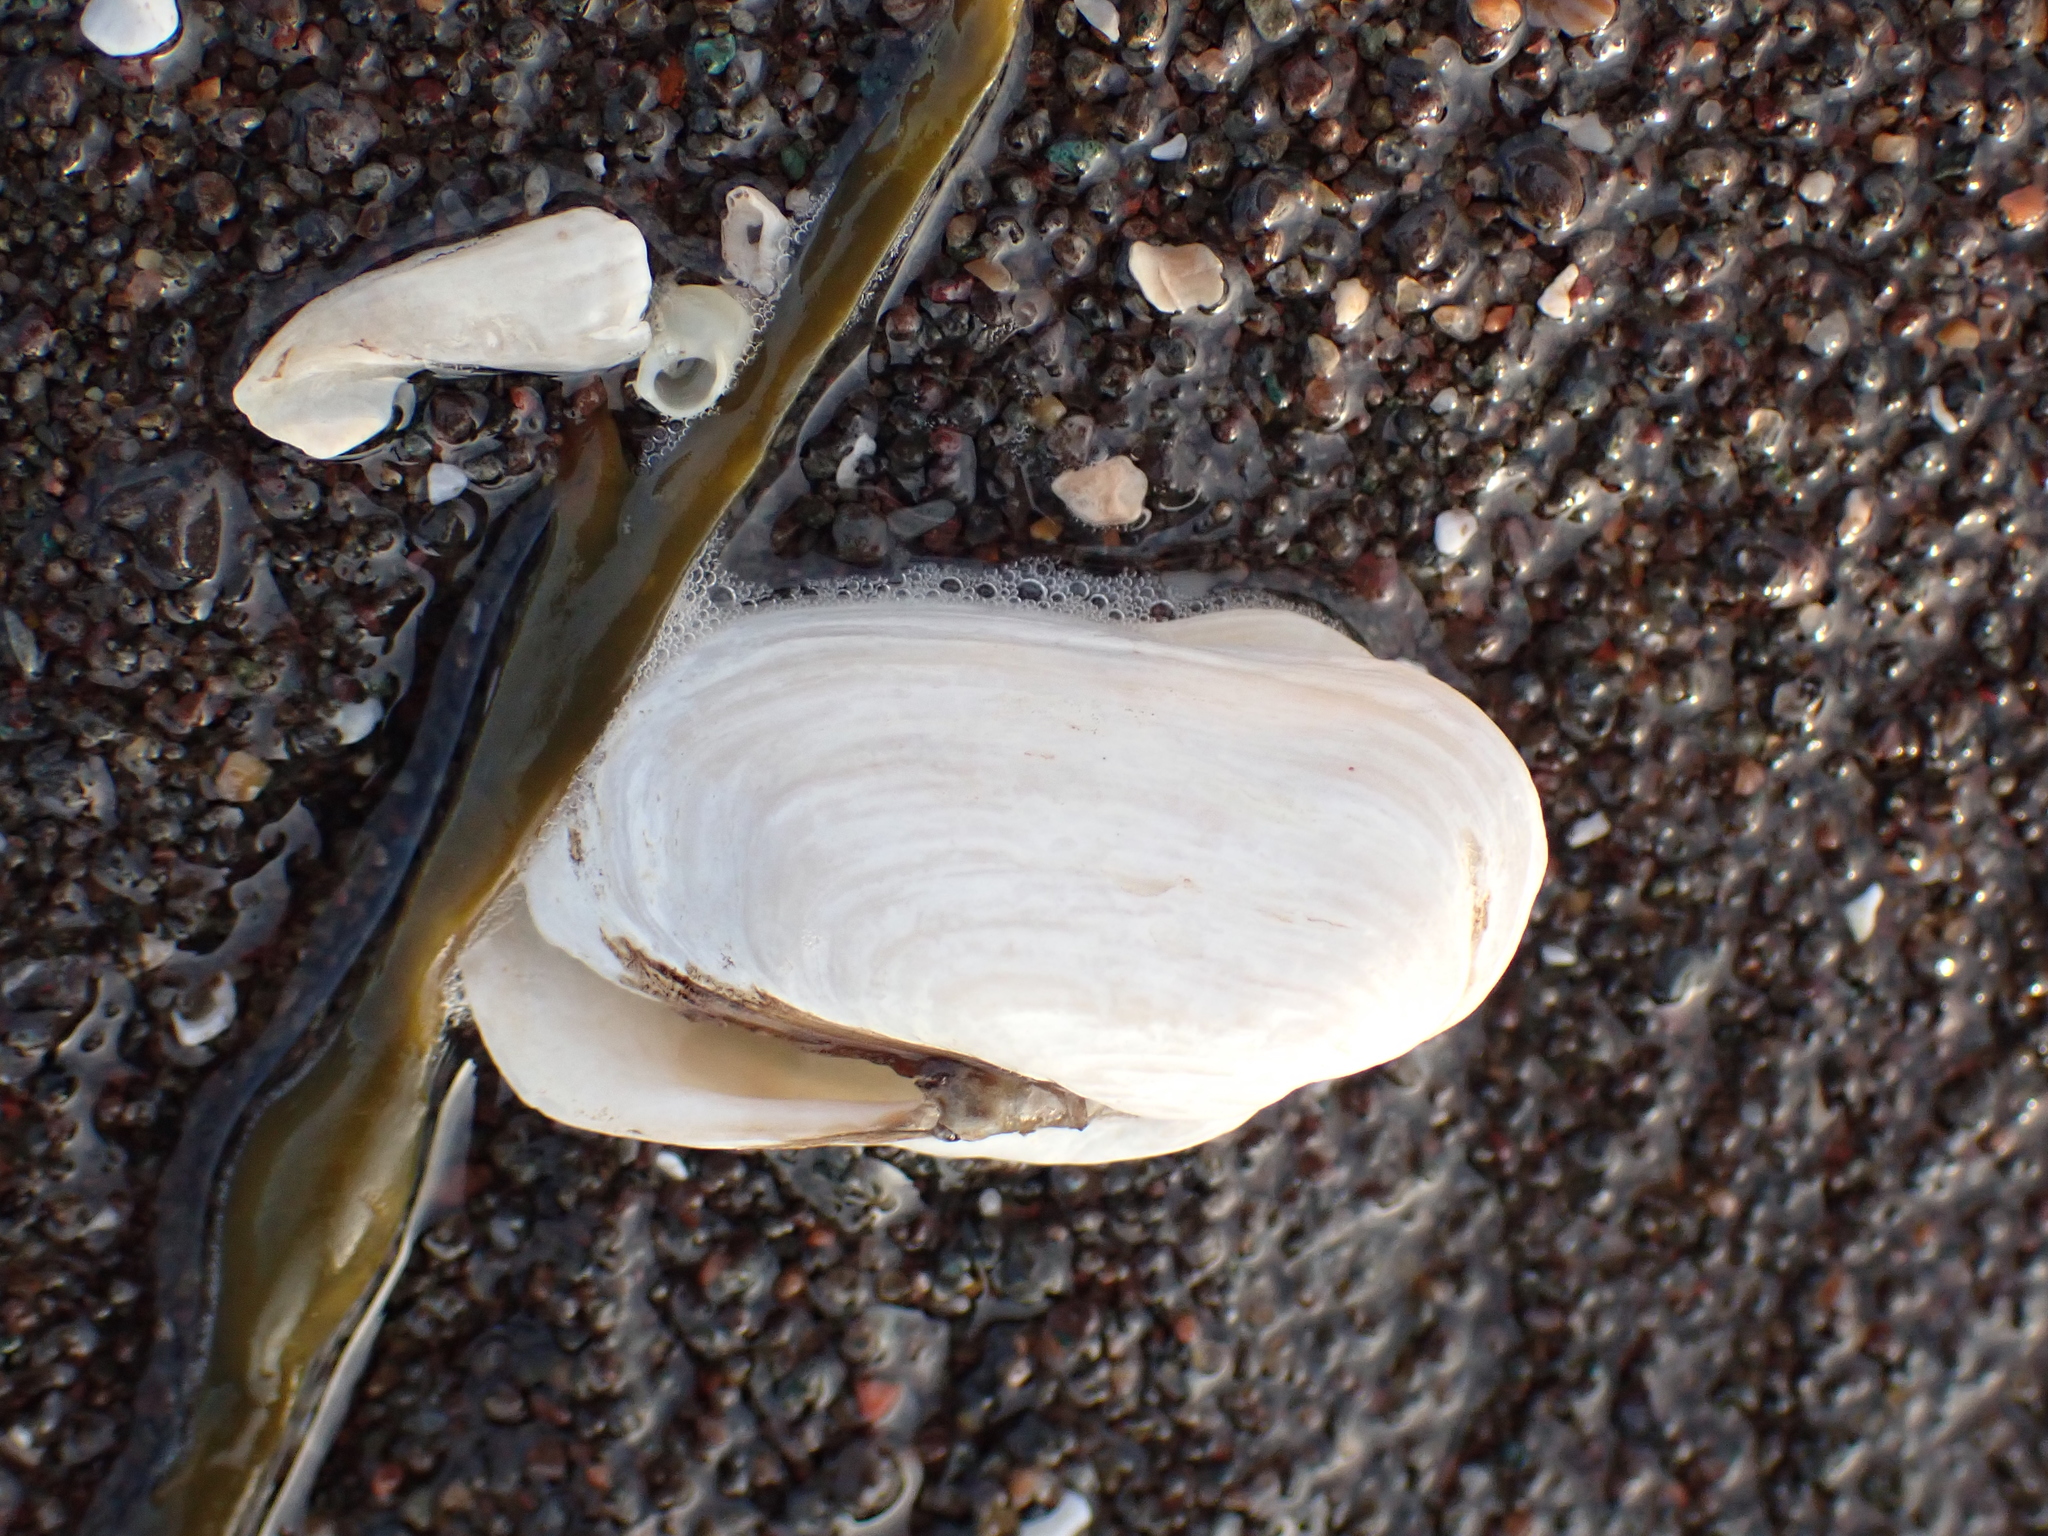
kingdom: Animalia
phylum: Mollusca
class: Bivalvia
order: Adapedonta
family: Hiatellidae
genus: Hiatella
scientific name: Hiatella arctica
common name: Arctic hiatella
